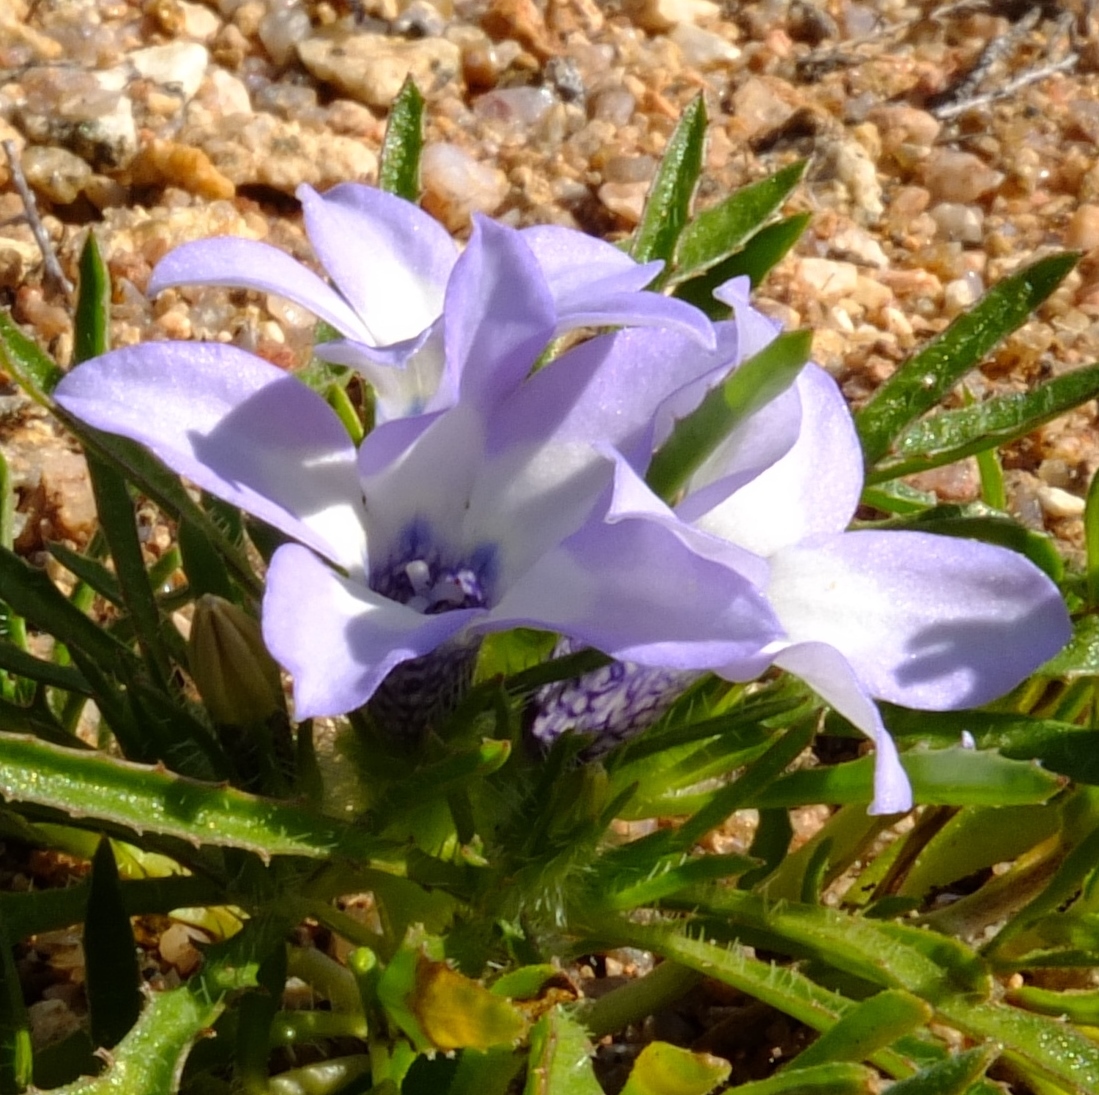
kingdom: Plantae
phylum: Tracheophyta
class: Magnoliopsida
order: Asterales
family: Campanulaceae
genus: Wahlenbergia
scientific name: Wahlenbergia acaulis
